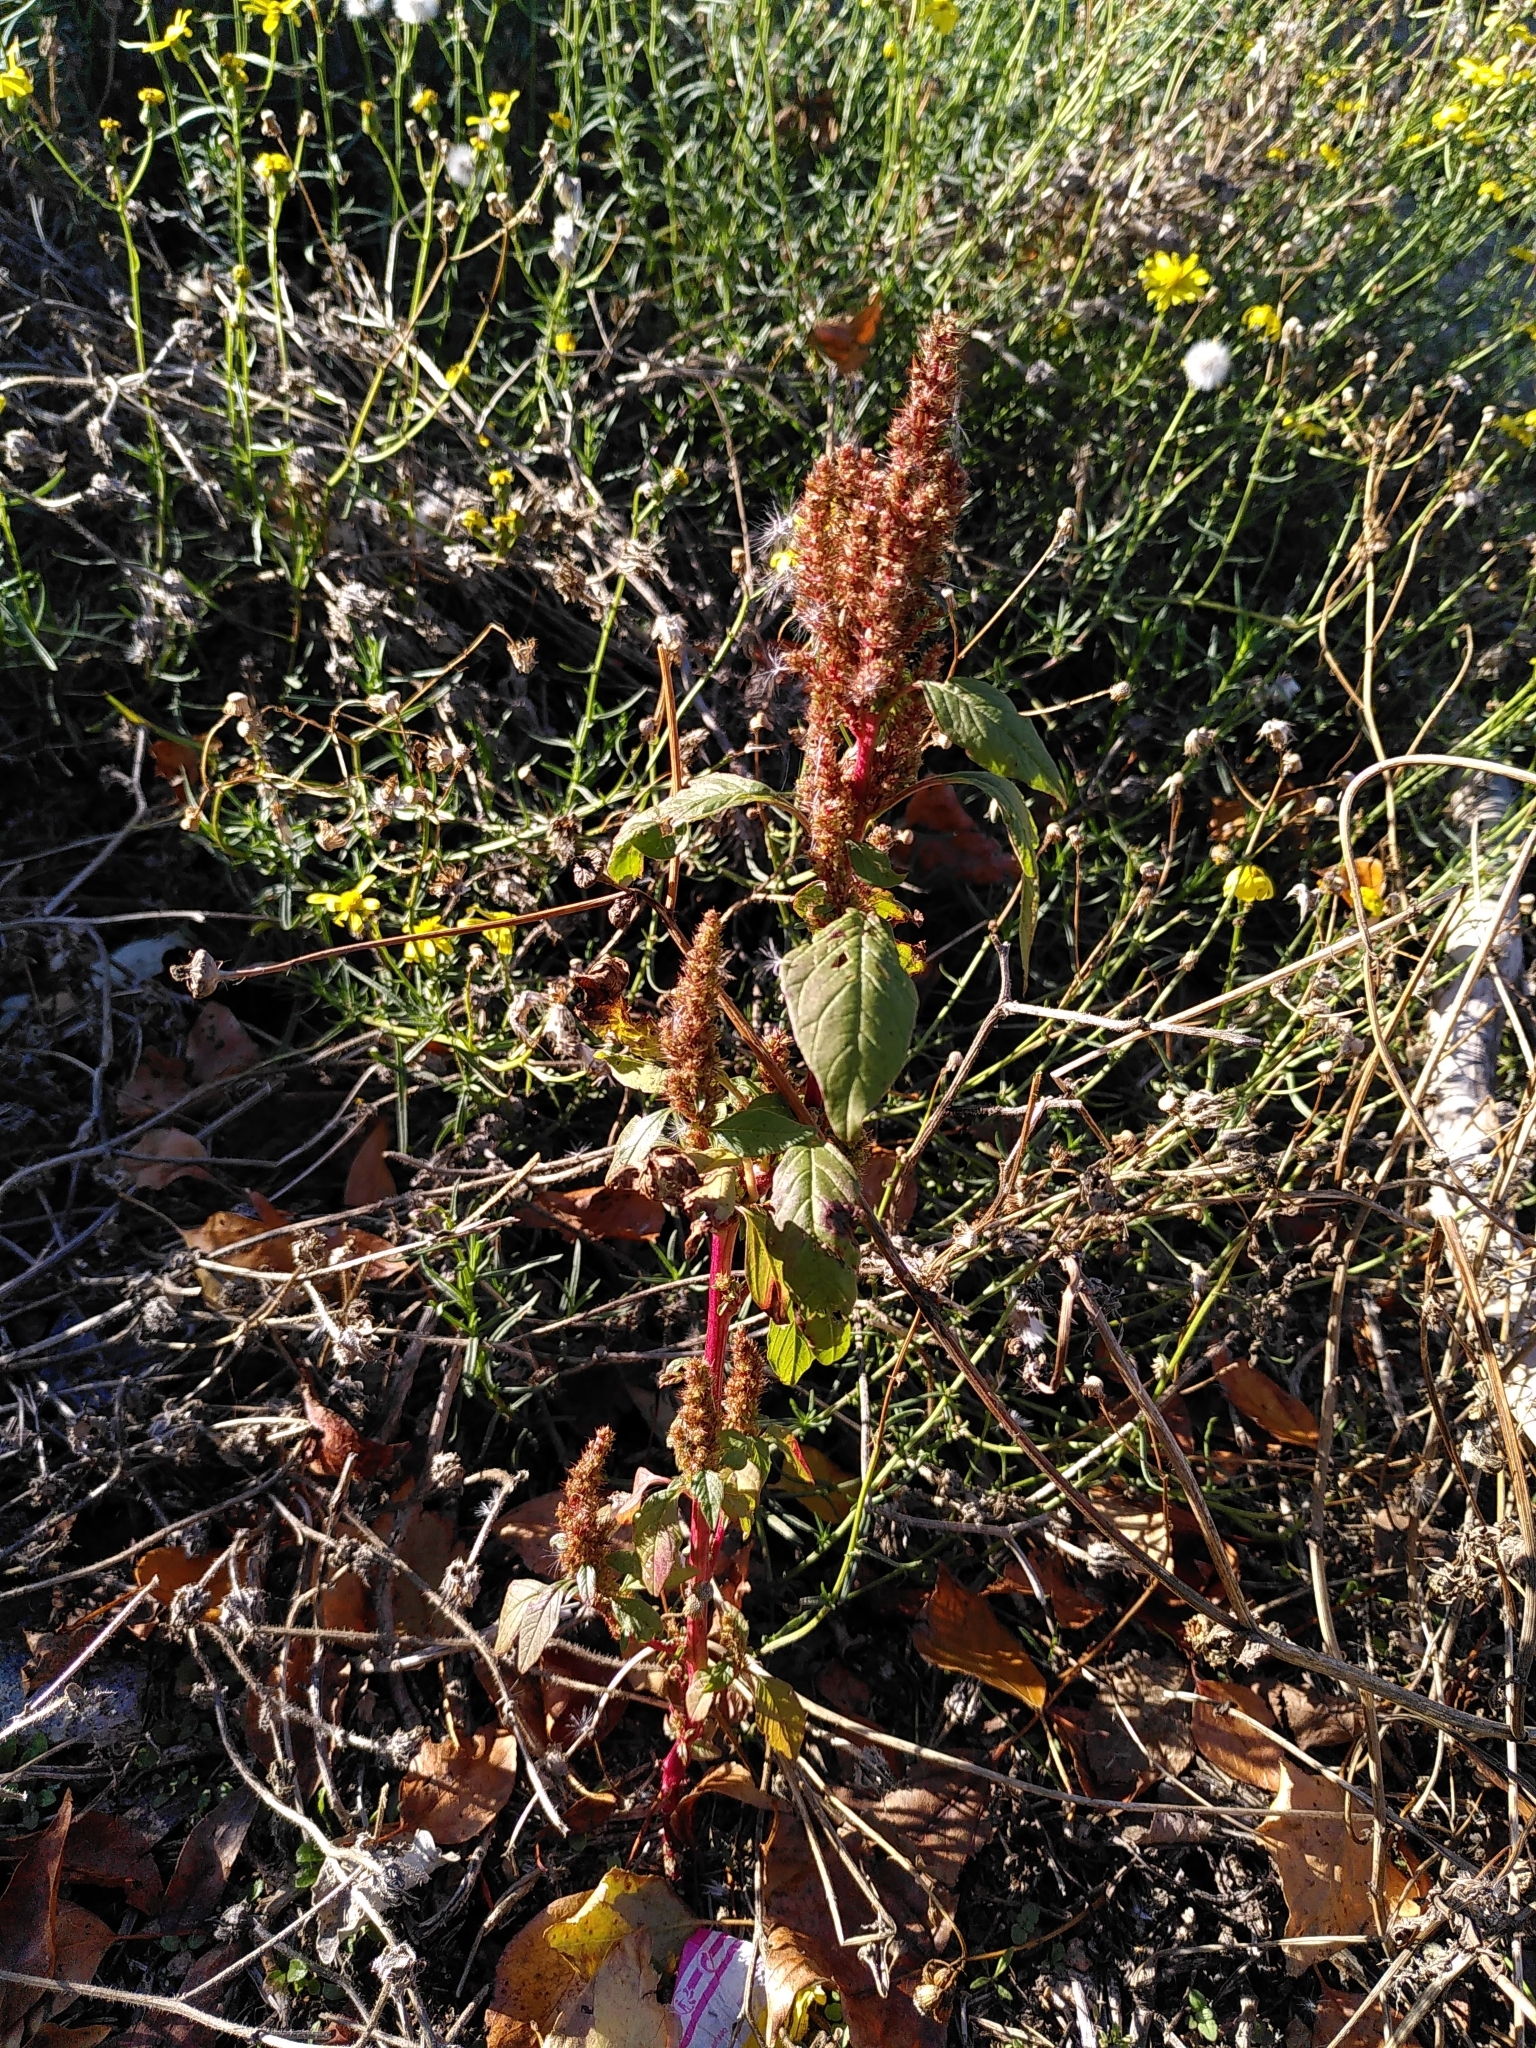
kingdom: Plantae
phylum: Tracheophyta
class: Magnoliopsida
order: Caryophyllales
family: Amaranthaceae
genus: Amaranthus
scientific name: Amaranthus retroflexus
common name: Redroot amaranth
